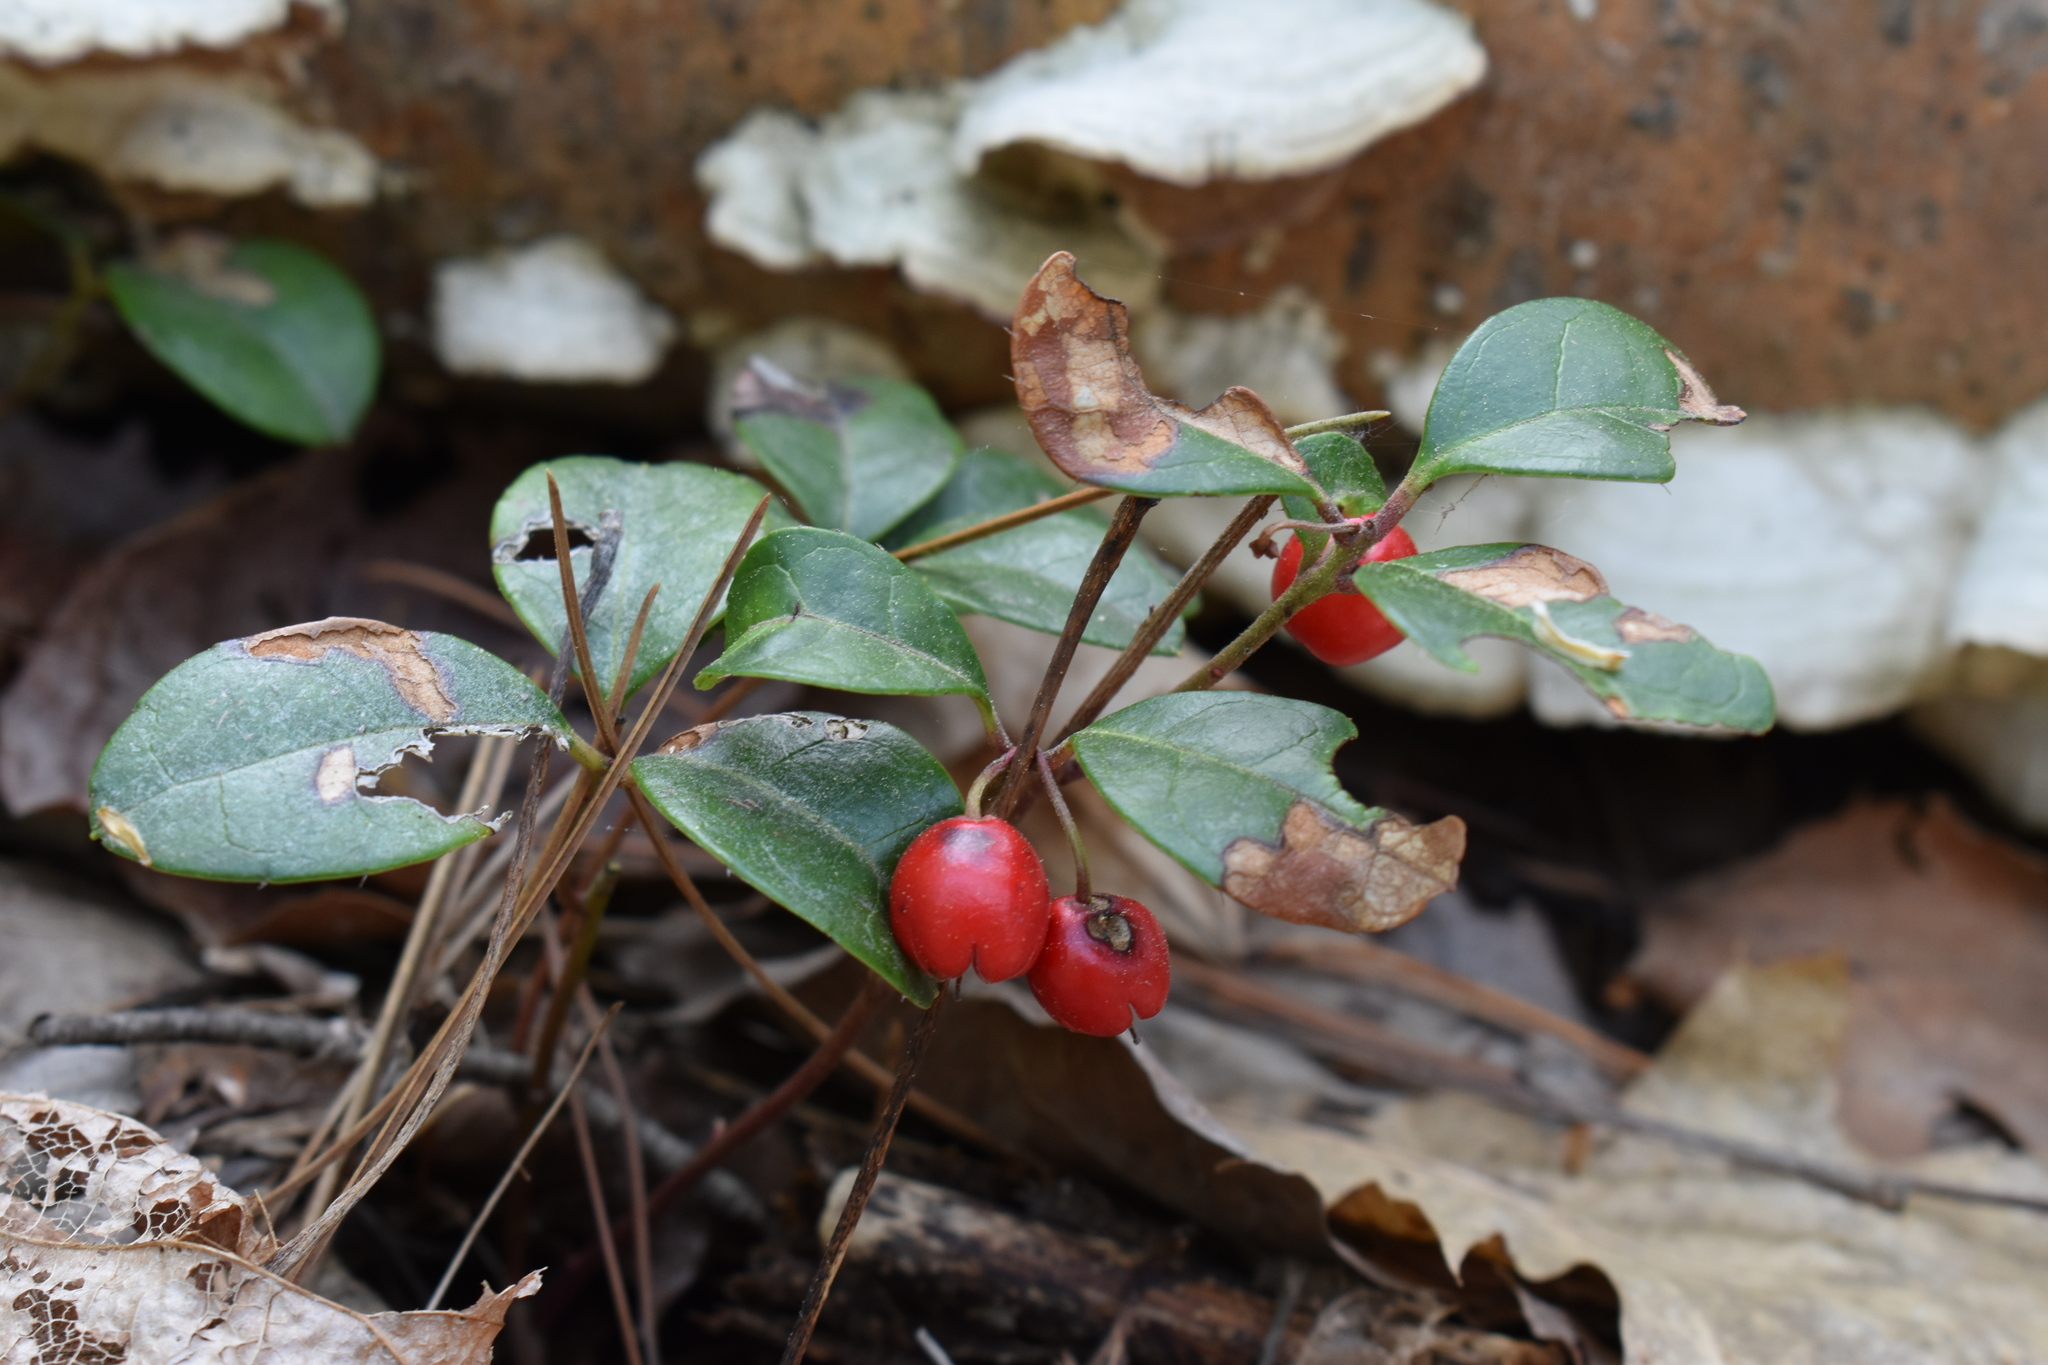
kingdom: Plantae
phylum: Tracheophyta
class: Magnoliopsida
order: Ericales
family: Ericaceae
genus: Gaultheria
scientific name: Gaultheria procumbens
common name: Checkerberry
